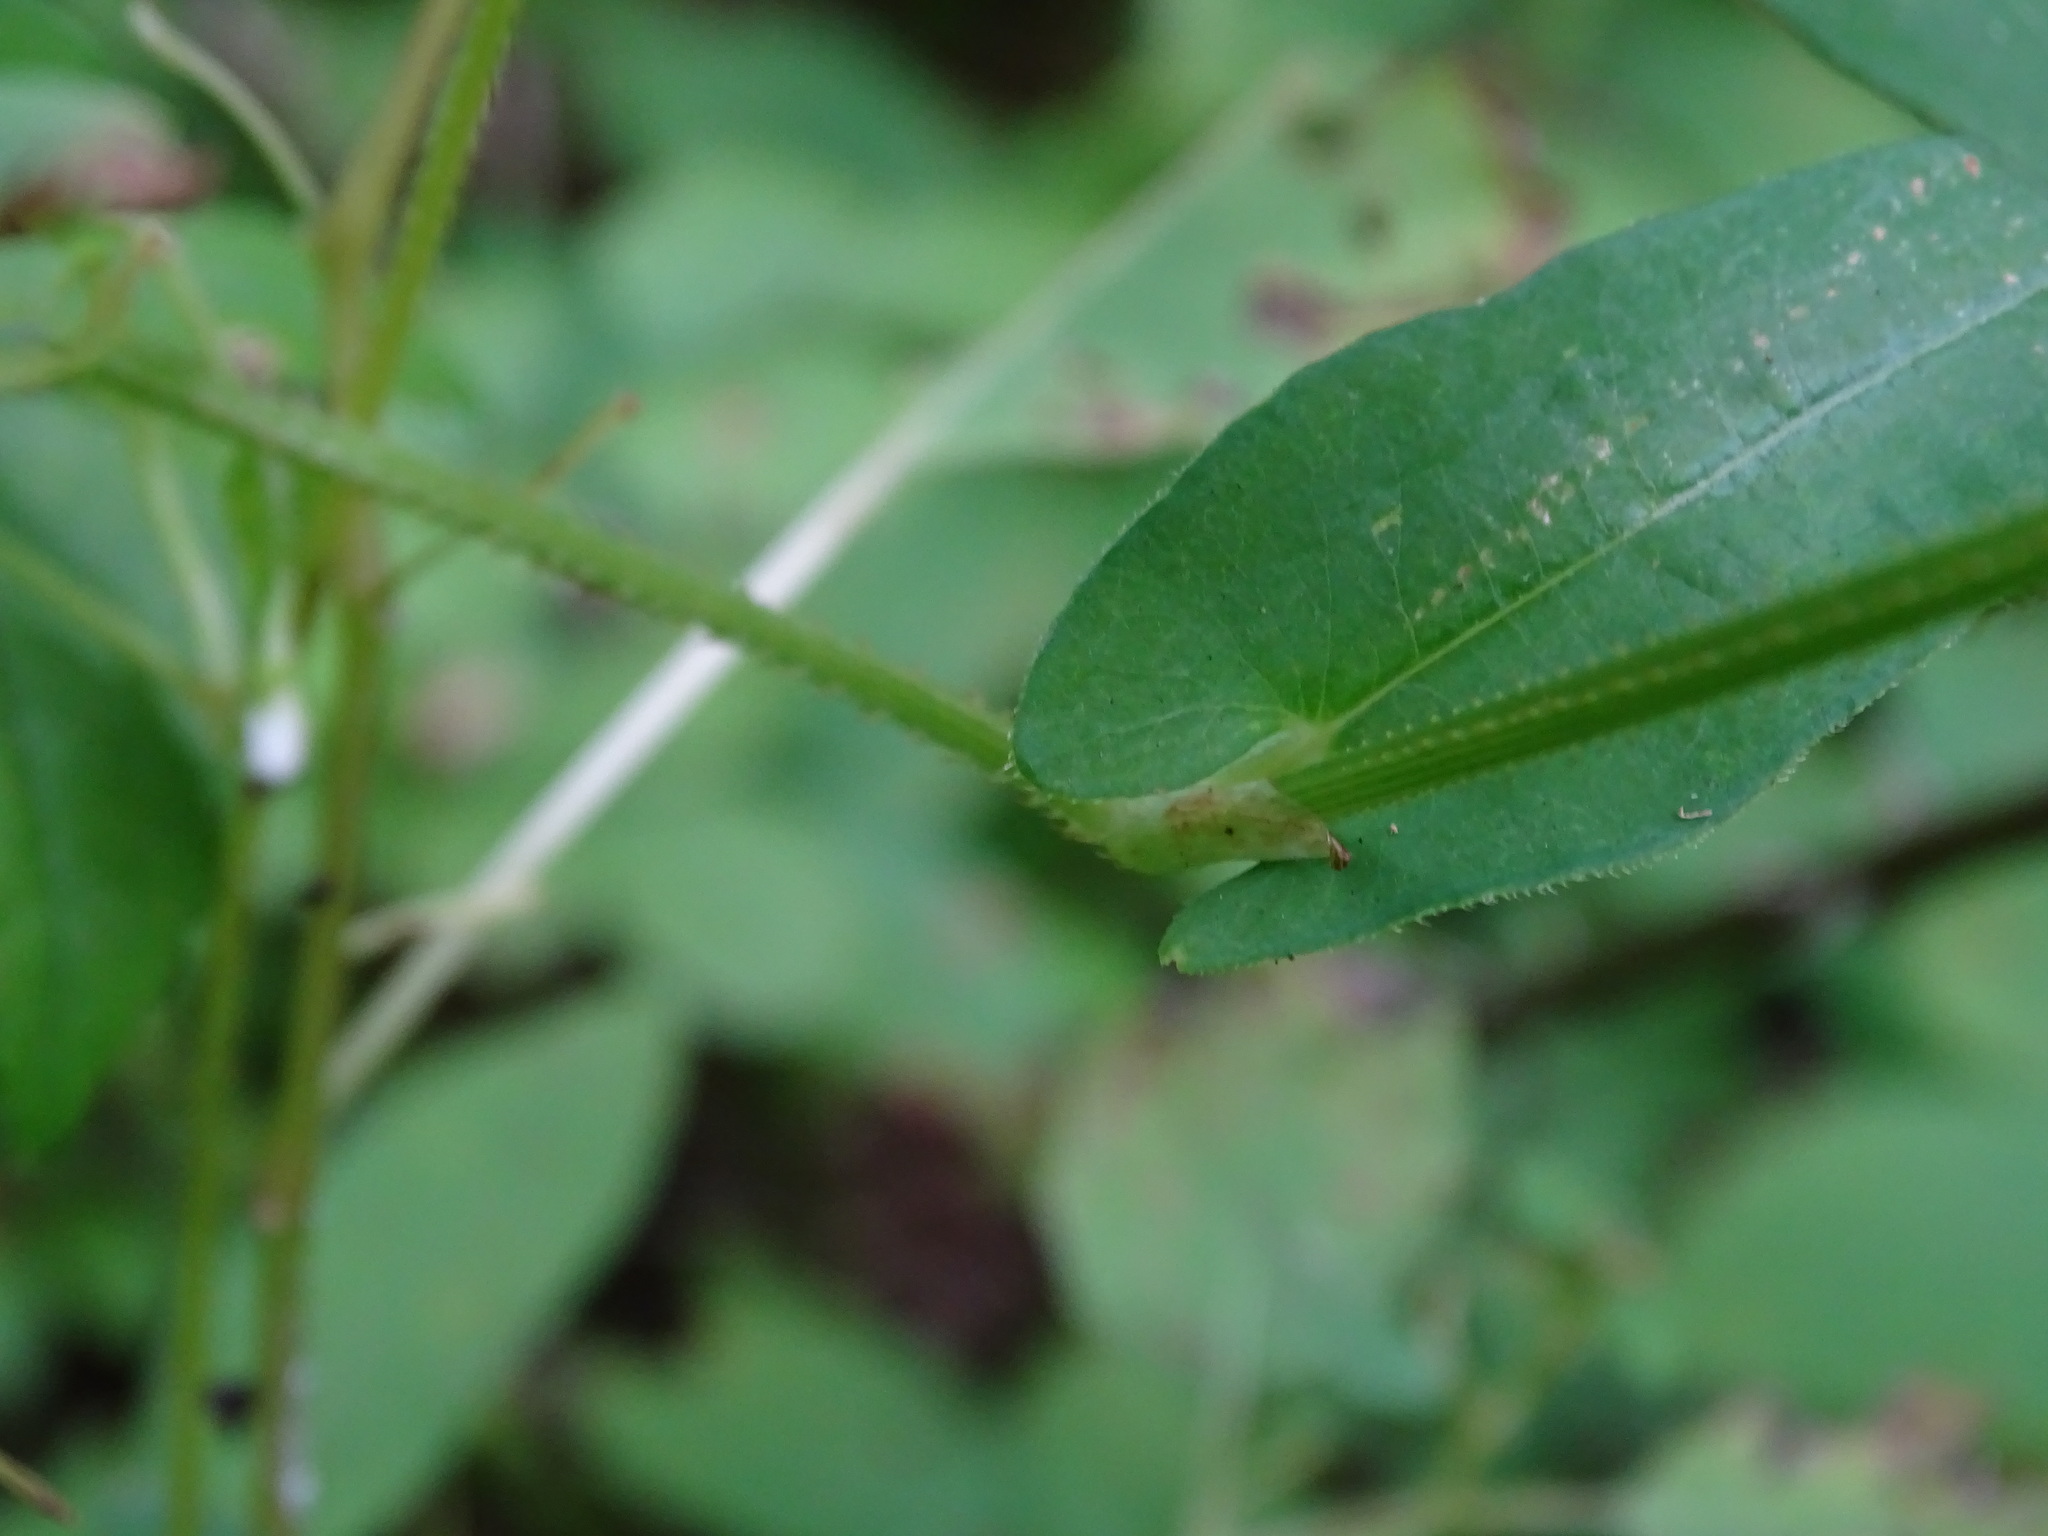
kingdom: Plantae
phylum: Tracheophyta
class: Magnoliopsida
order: Caryophyllales
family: Polygonaceae
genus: Persicaria
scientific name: Persicaria sagittata
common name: American tearthumb
